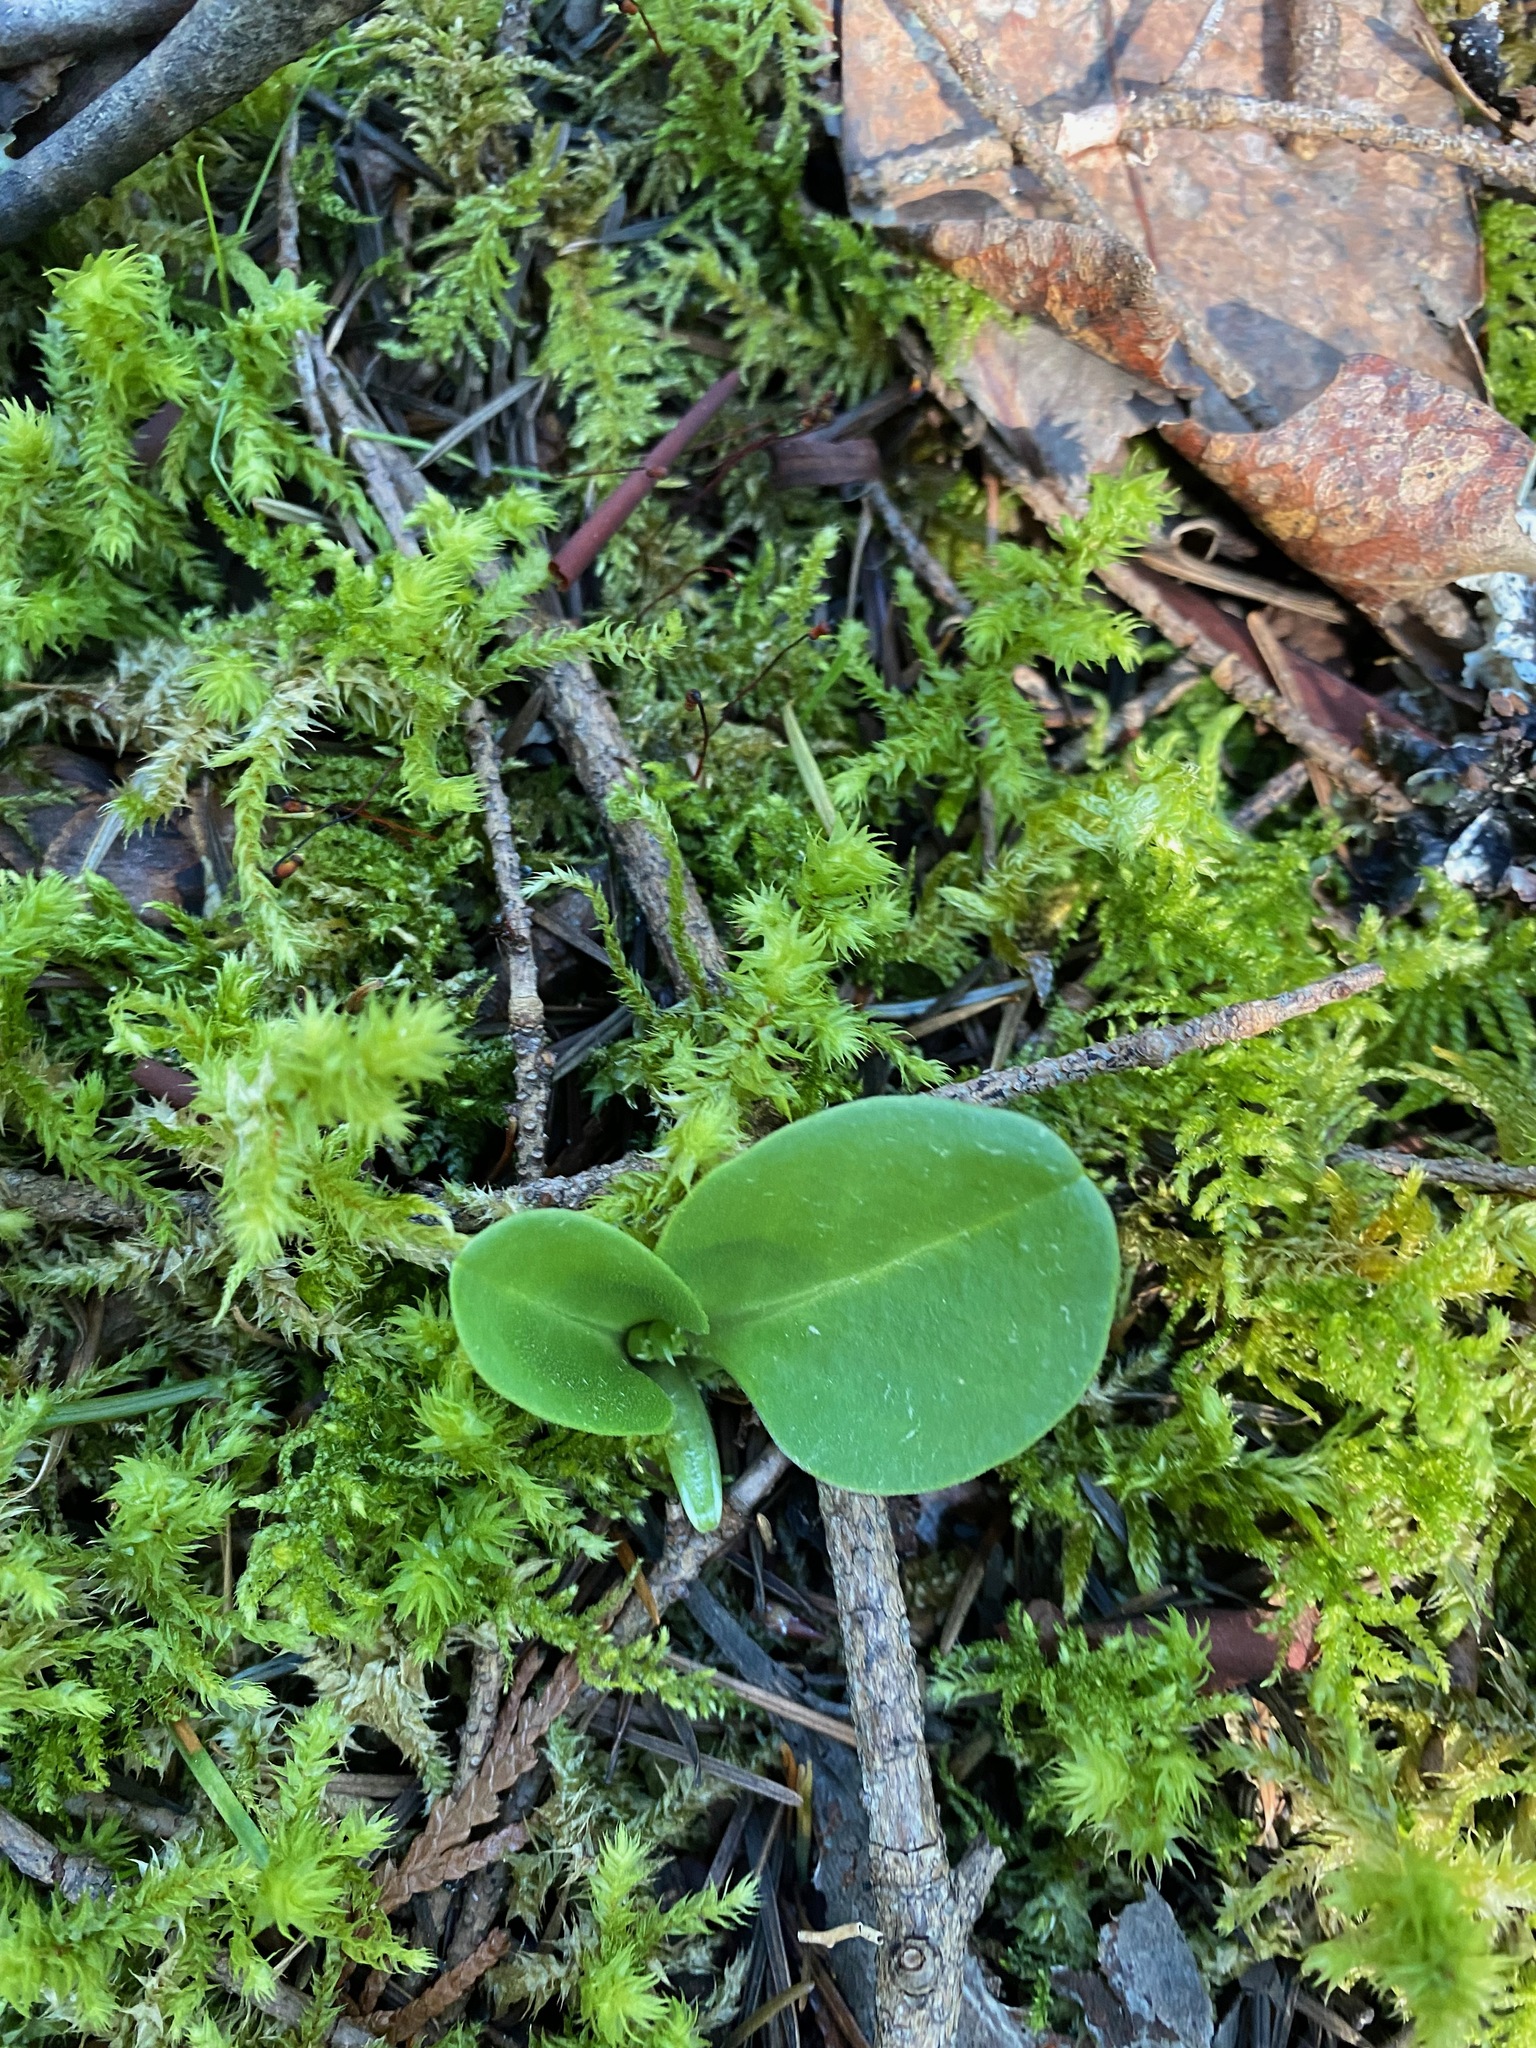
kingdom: Plantae
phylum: Tracheophyta
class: Magnoliopsida
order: Ericales
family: Primulaceae
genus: Dodecatheon
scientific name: Dodecatheon hendersonii
